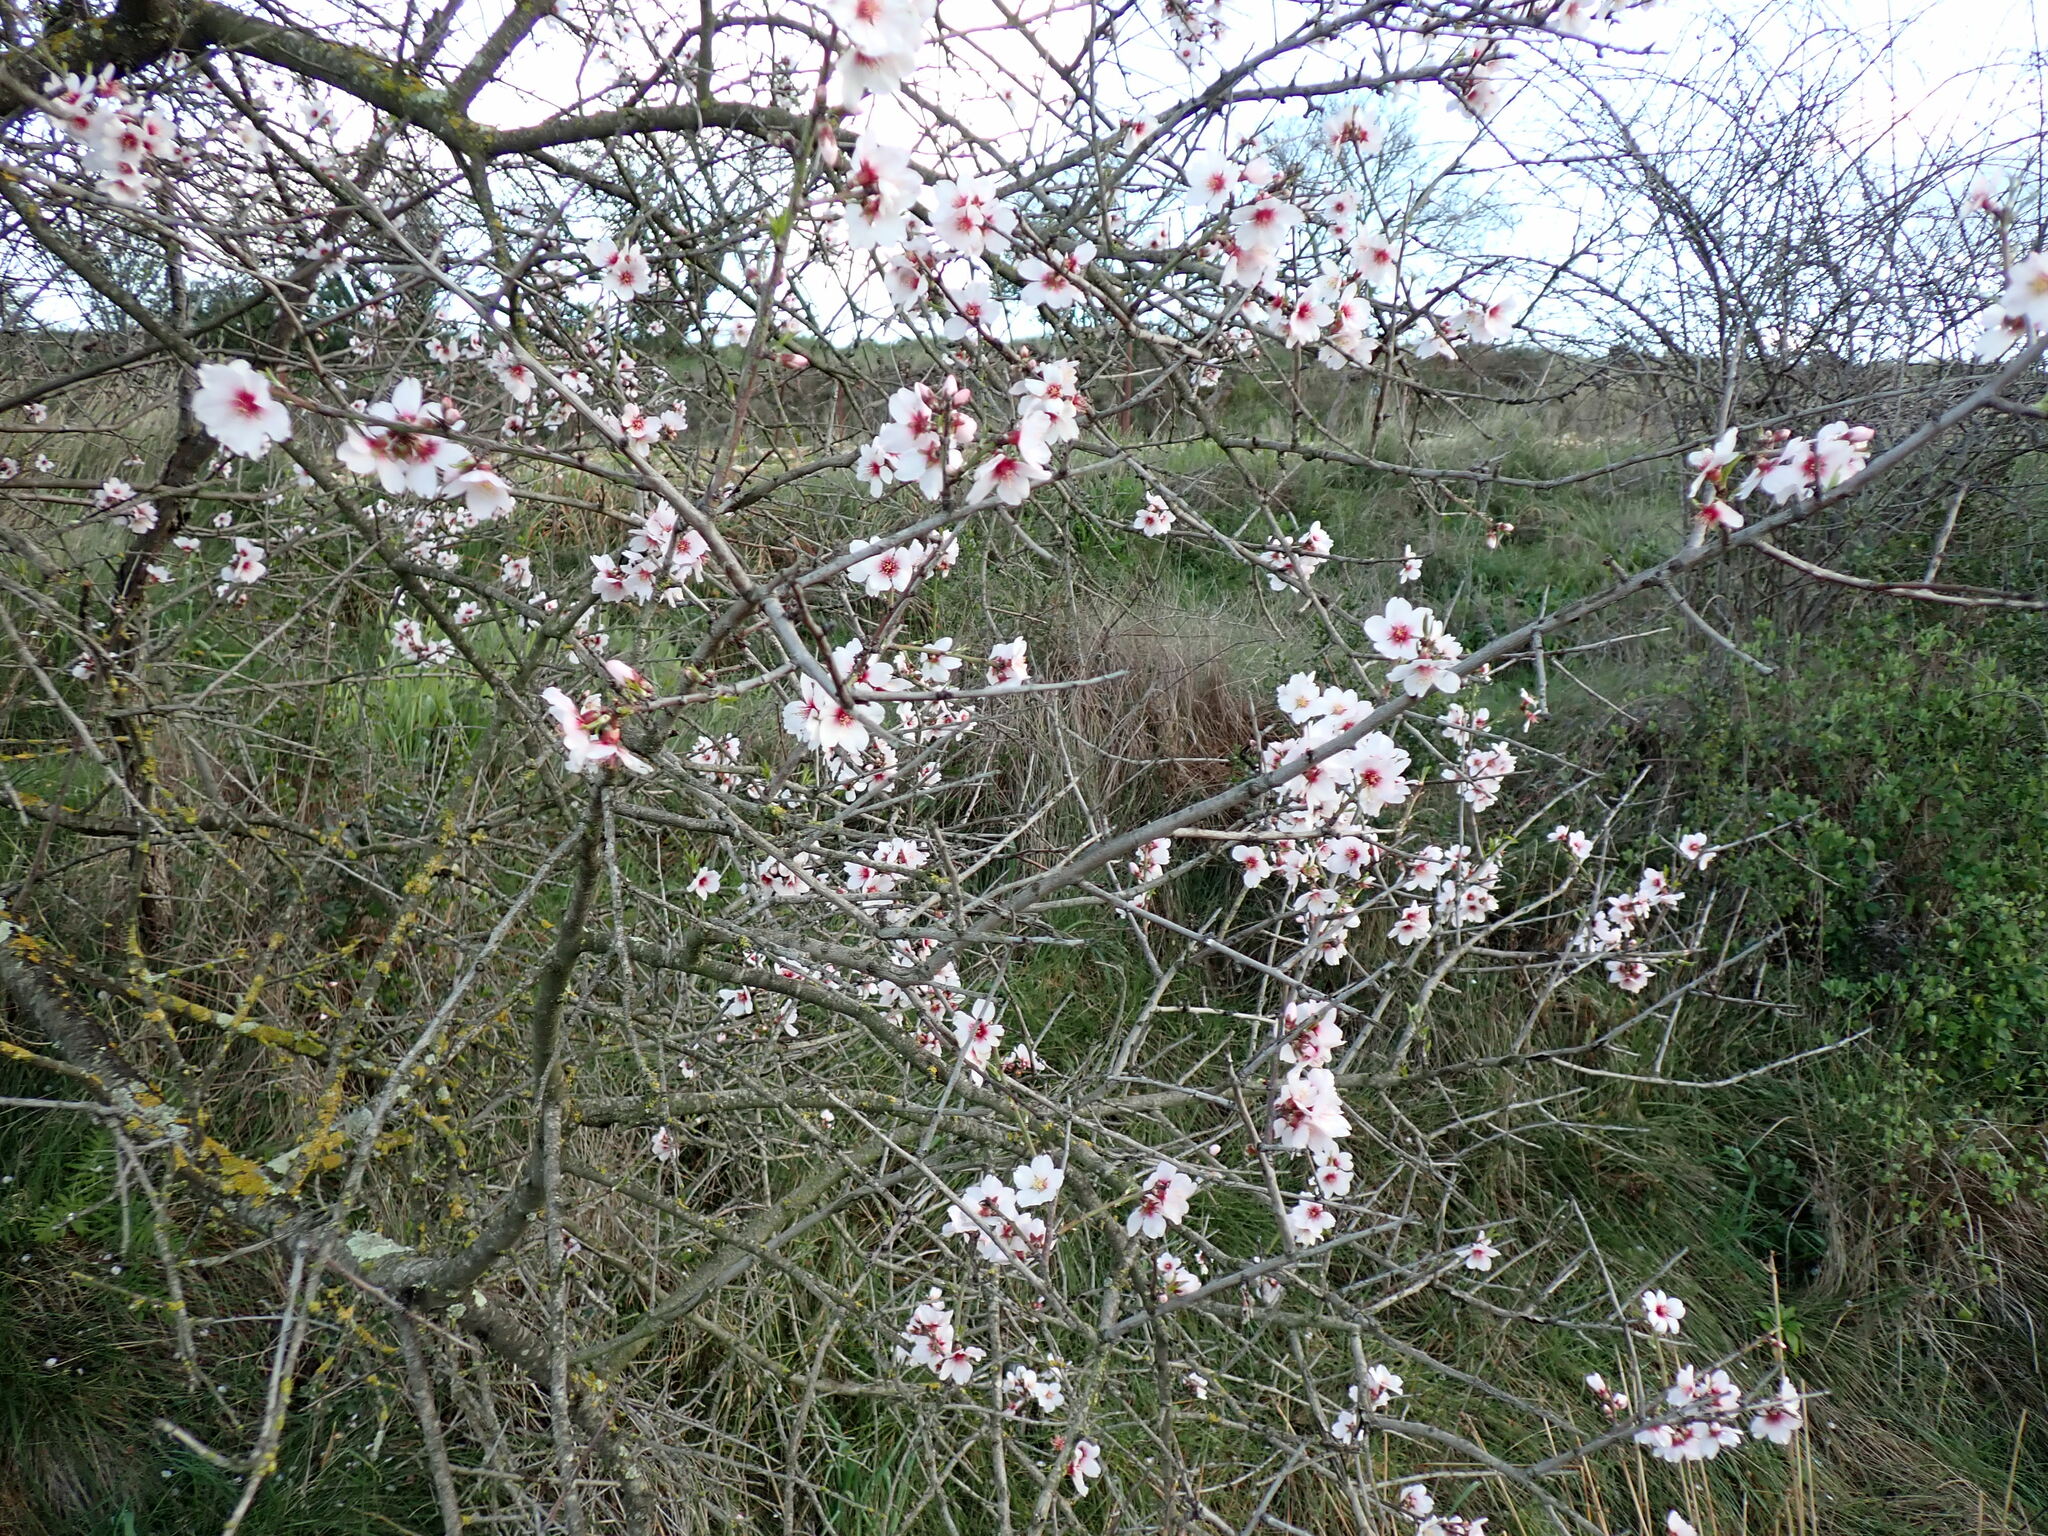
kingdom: Plantae
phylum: Tracheophyta
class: Magnoliopsida
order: Rosales
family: Rosaceae
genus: Prunus
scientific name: Prunus amygdalus
